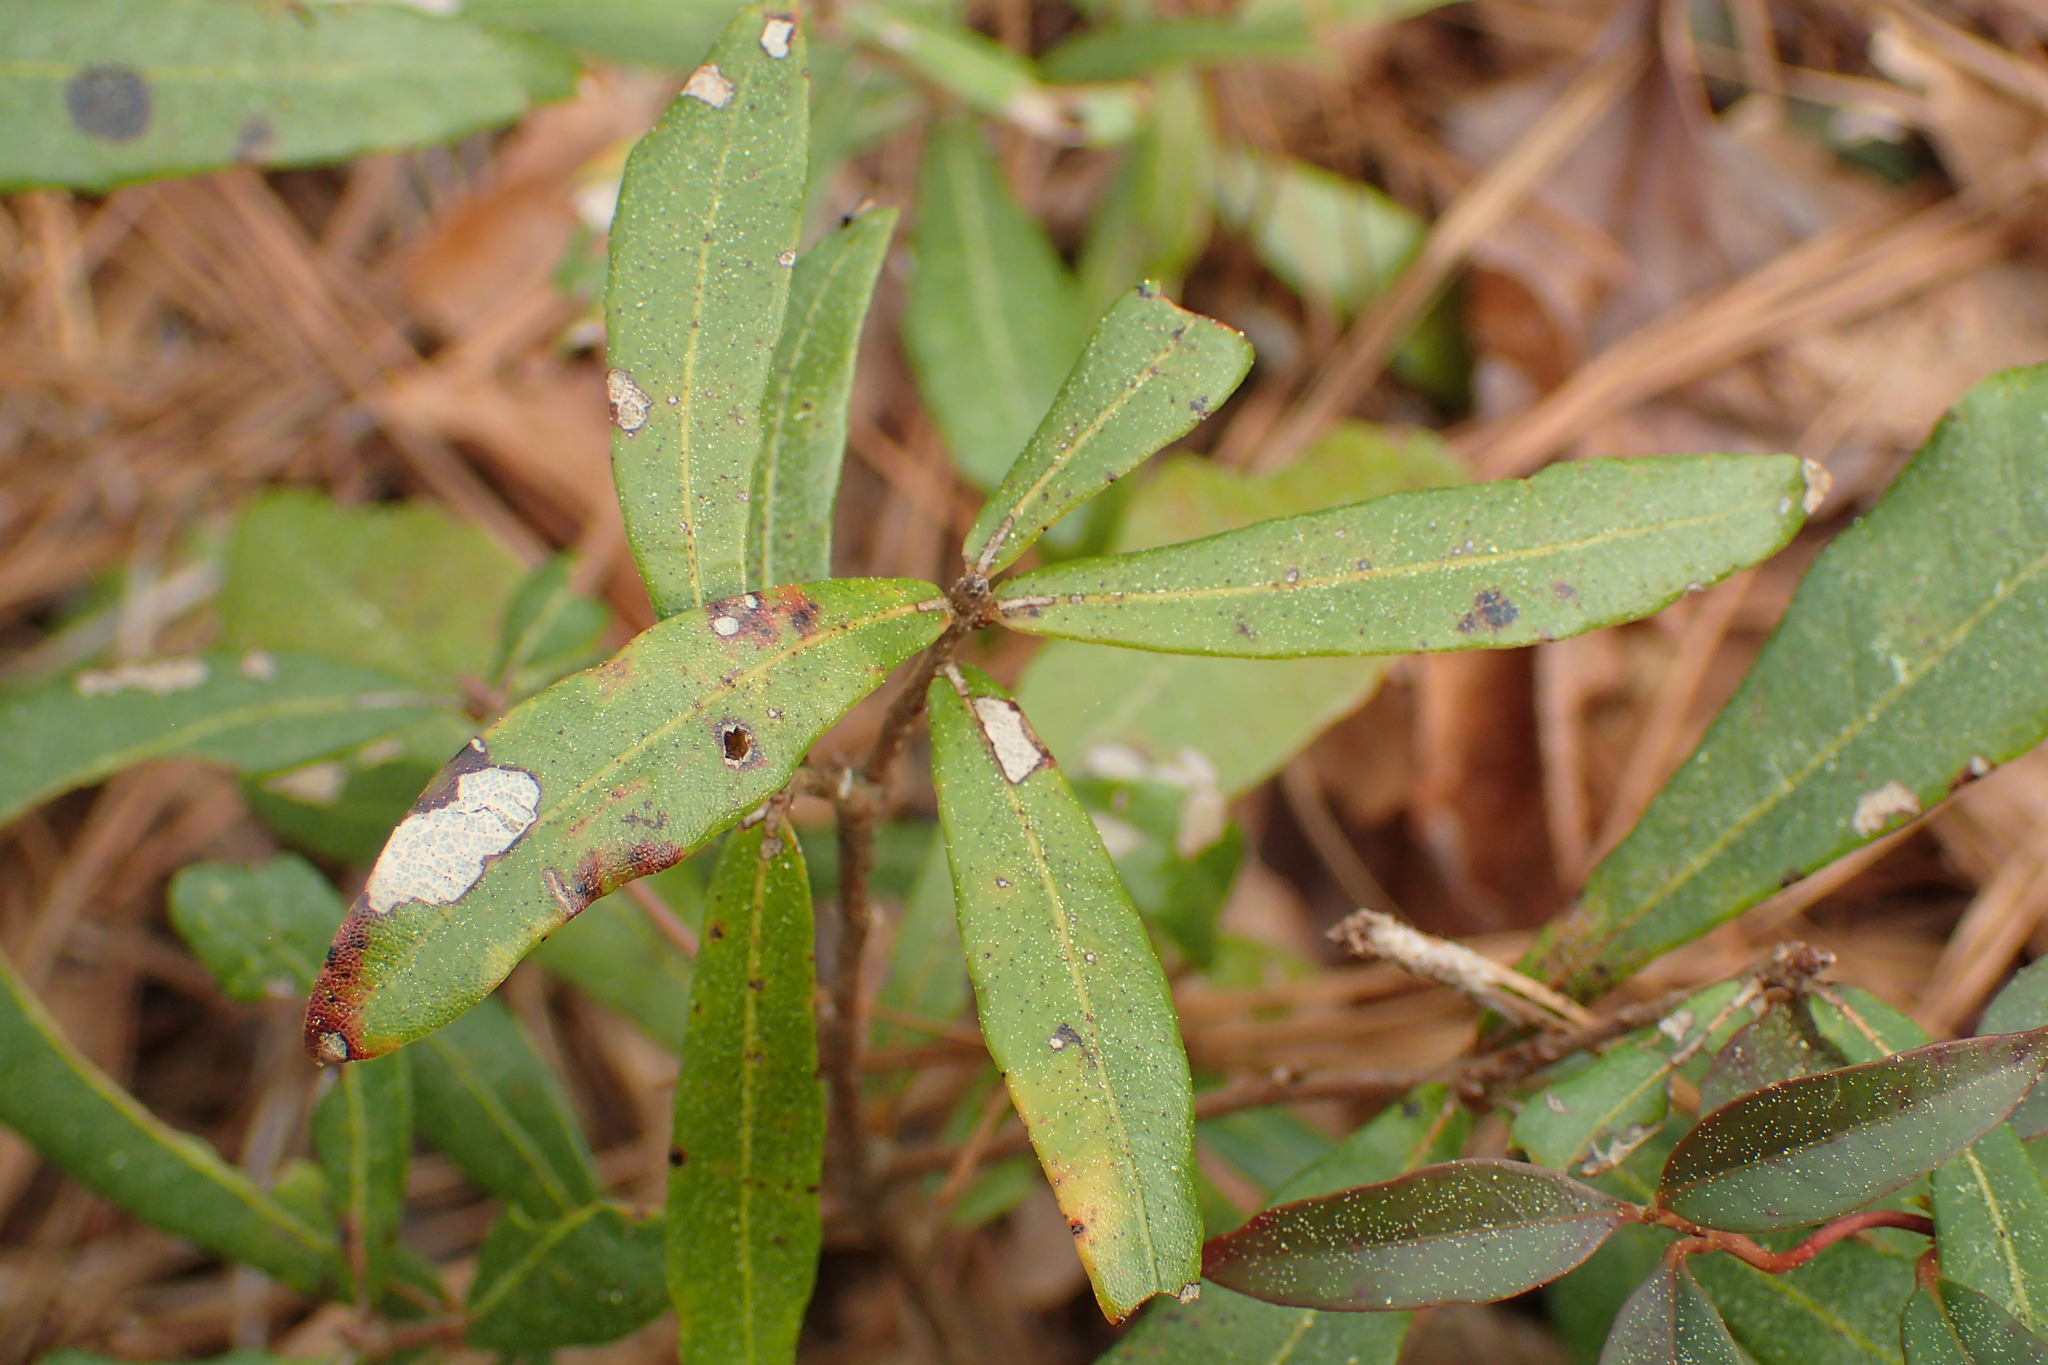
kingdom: Plantae
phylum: Tracheophyta
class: Magnoliopsida
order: Fagales
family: Fagaceae
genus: Quercus
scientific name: Quercus hemisphaerica
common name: Darlington oak
